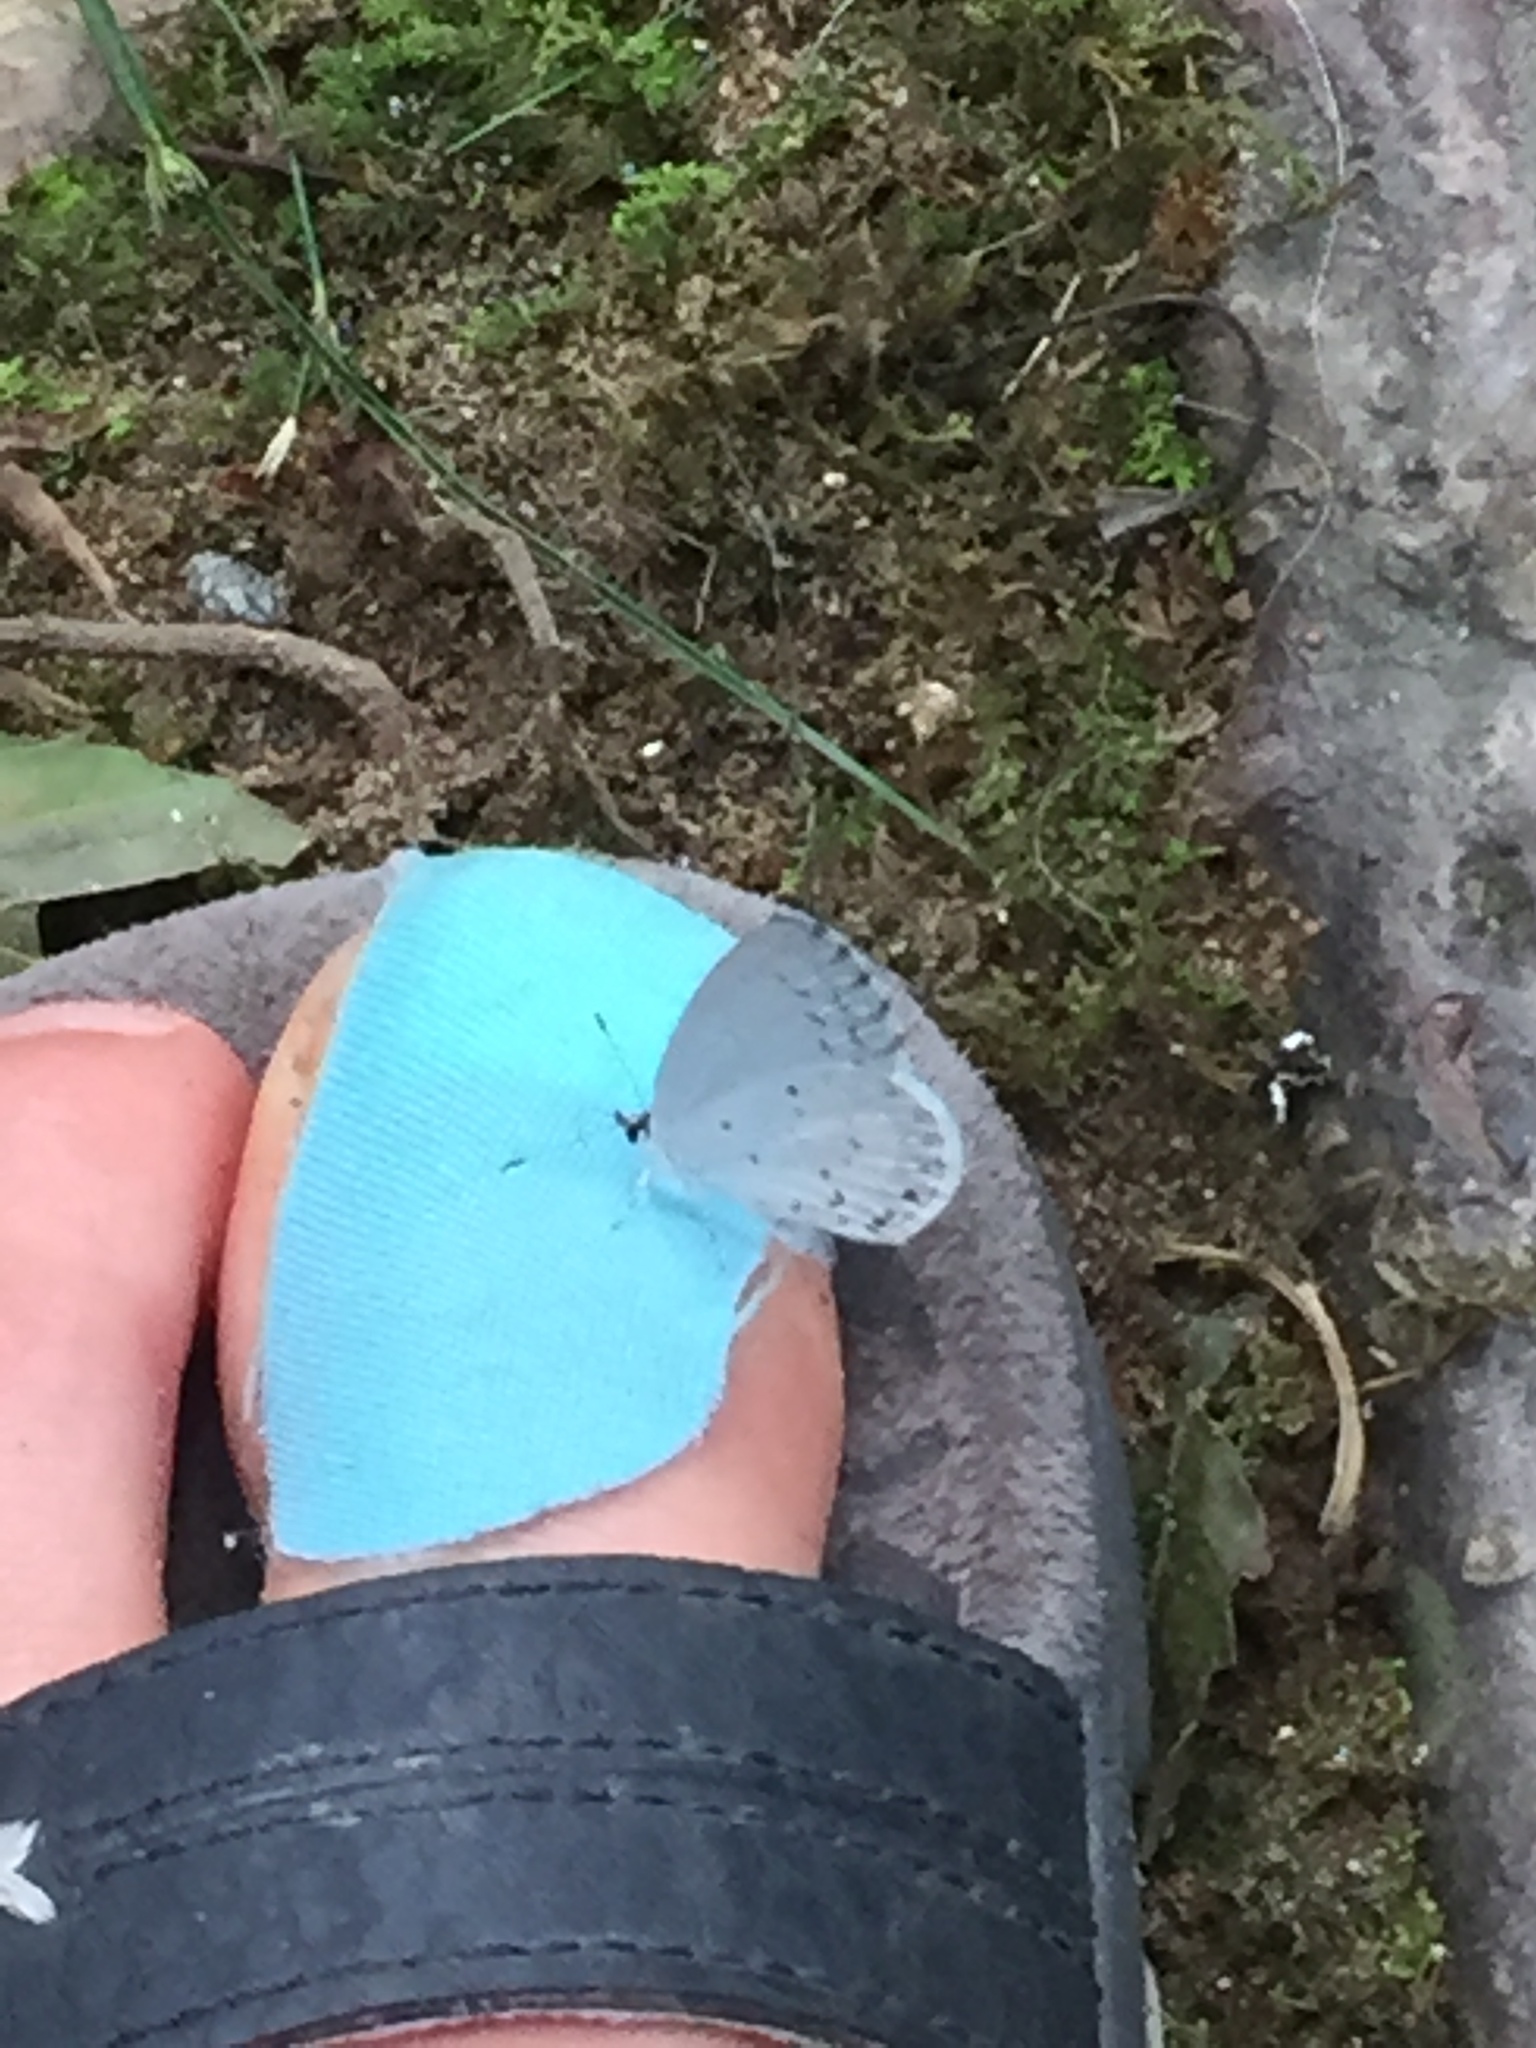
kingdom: Animalia
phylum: Arthropoda
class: Insecta
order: Lepidoptera
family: Lycaenidae
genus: Cyaniris
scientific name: Cyaniris neglecta
